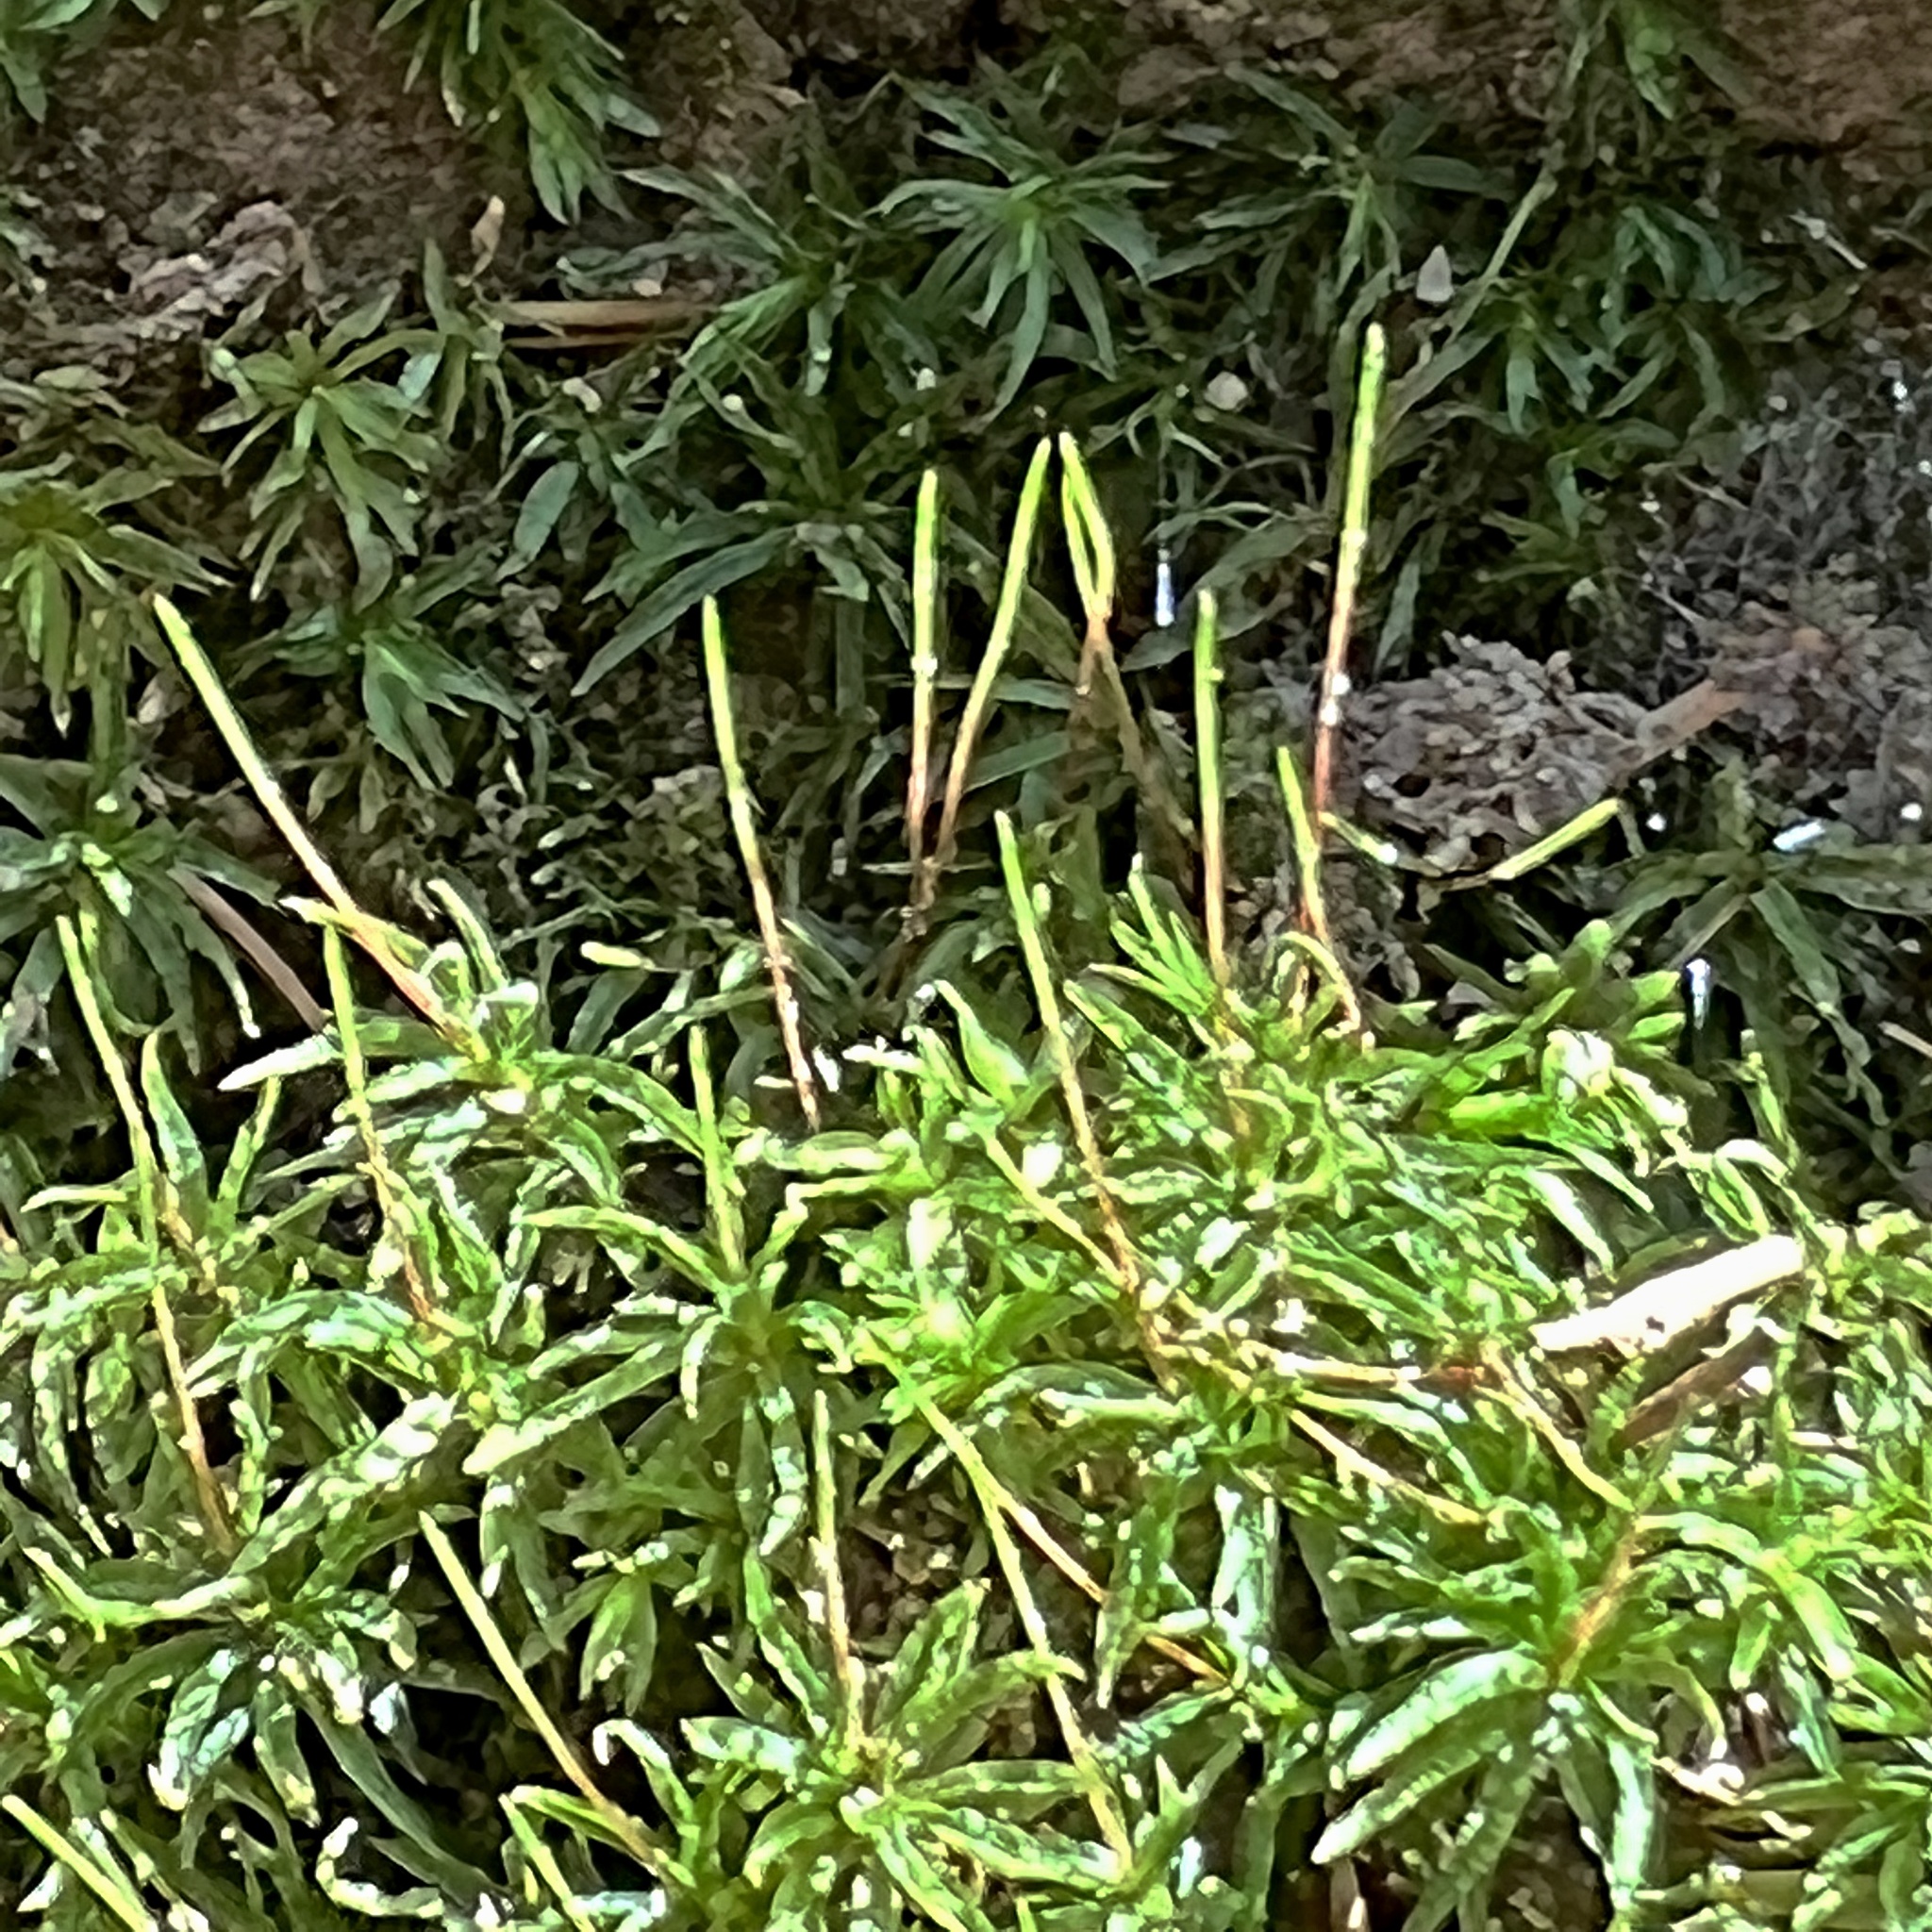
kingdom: Plantae
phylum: Bryophyta
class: Polytrichopsida
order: Polytrichales
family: Polytrichaceae
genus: Atrichum
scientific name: Atrichum undulatum
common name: Common smoothcap
